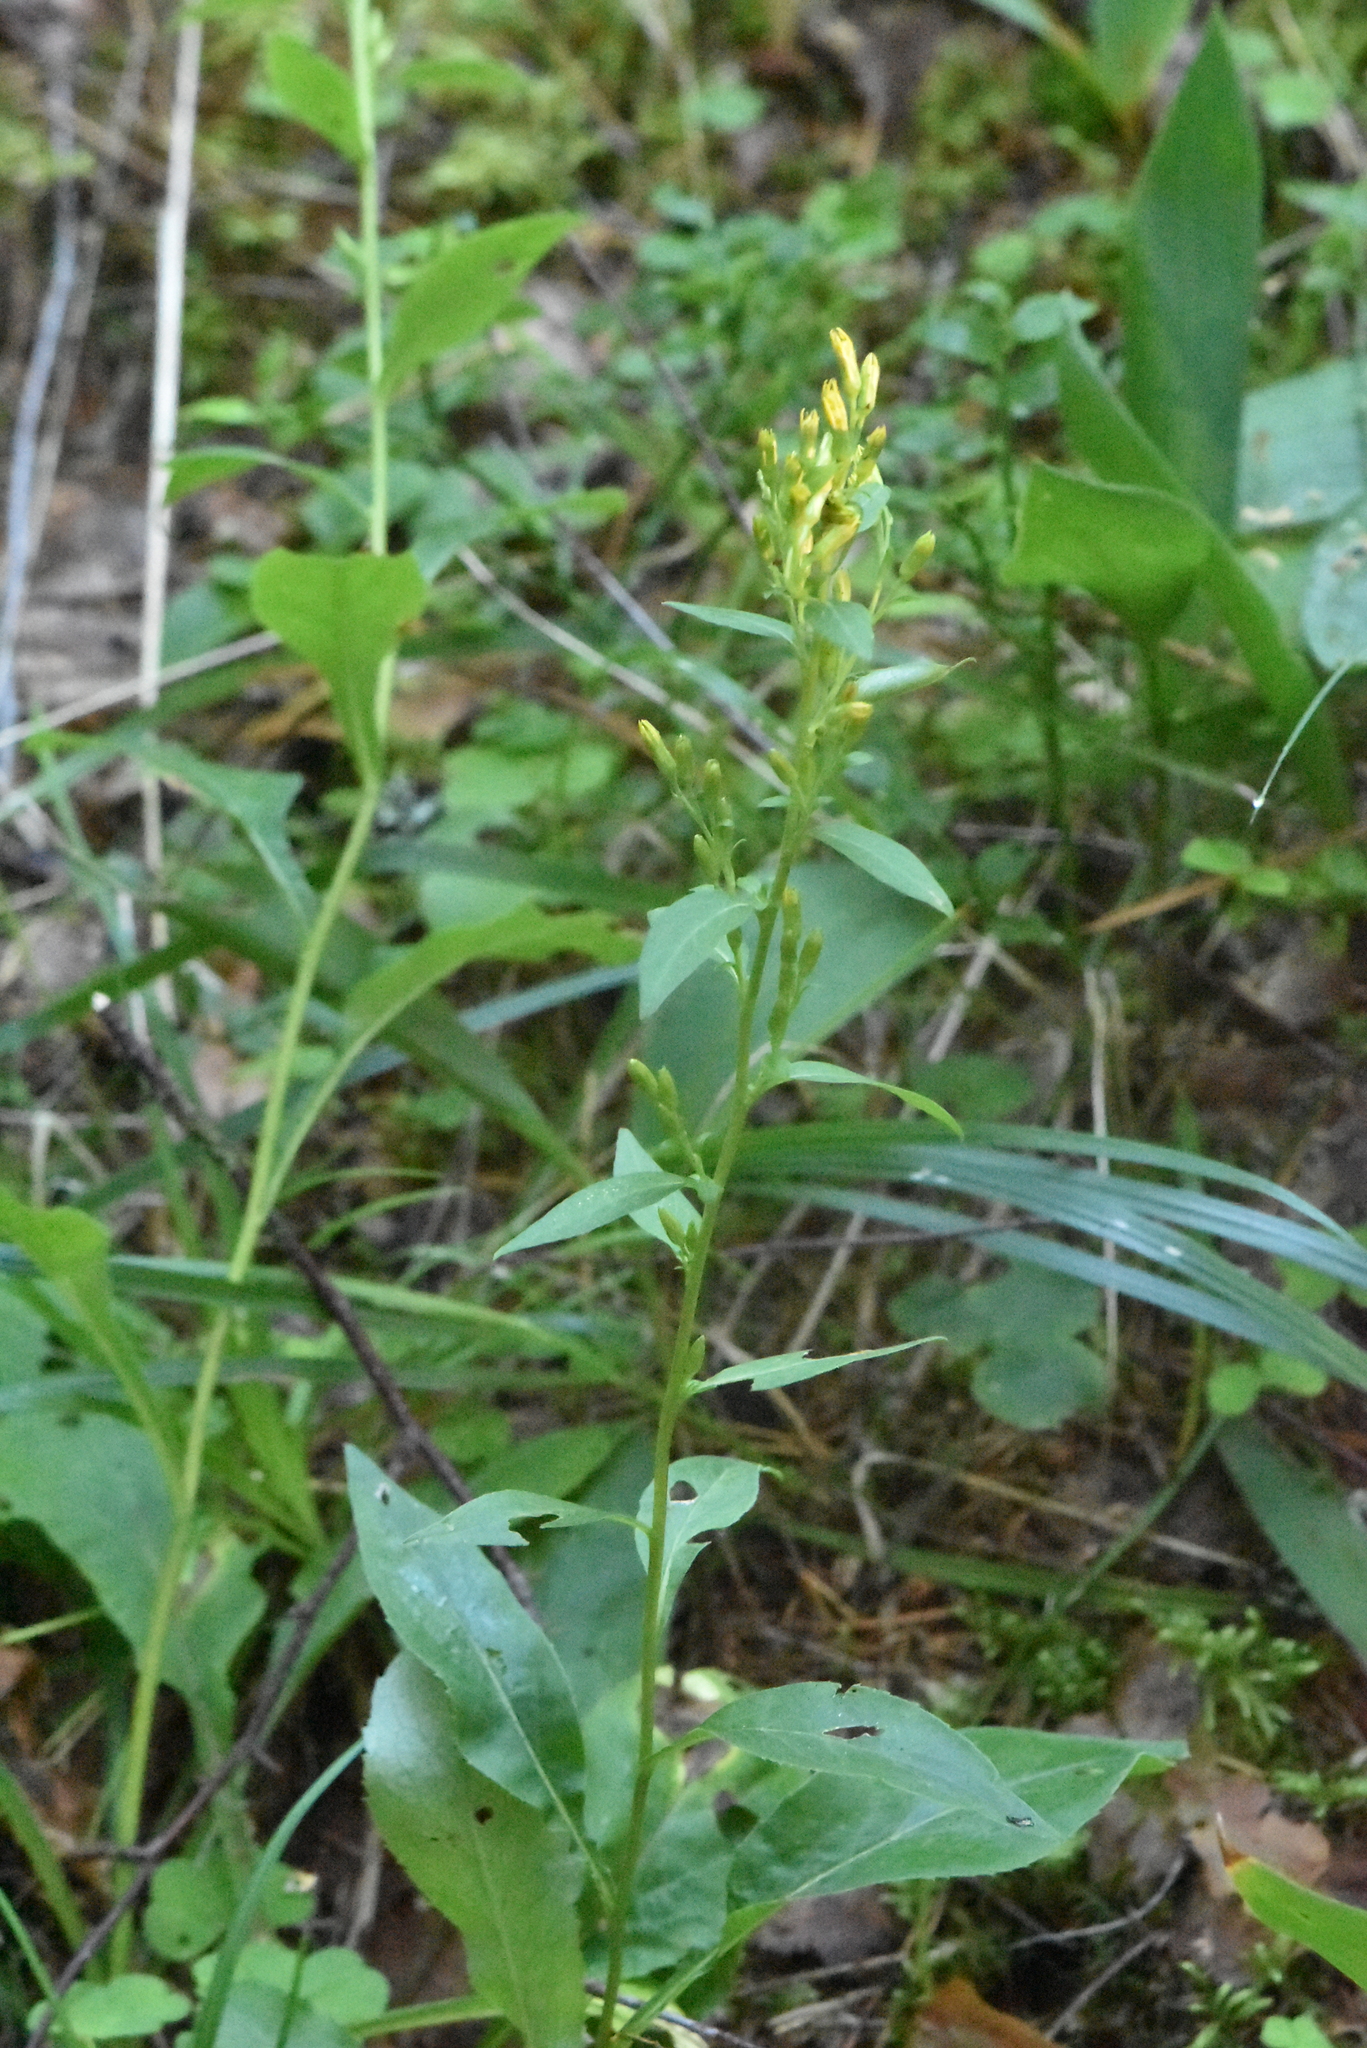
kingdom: Plantae
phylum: Tracheophyta
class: Magnoliopsida
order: Asterales
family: Asteraceae
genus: Solidago
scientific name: Solidago virgaurea
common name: Goldenrod
